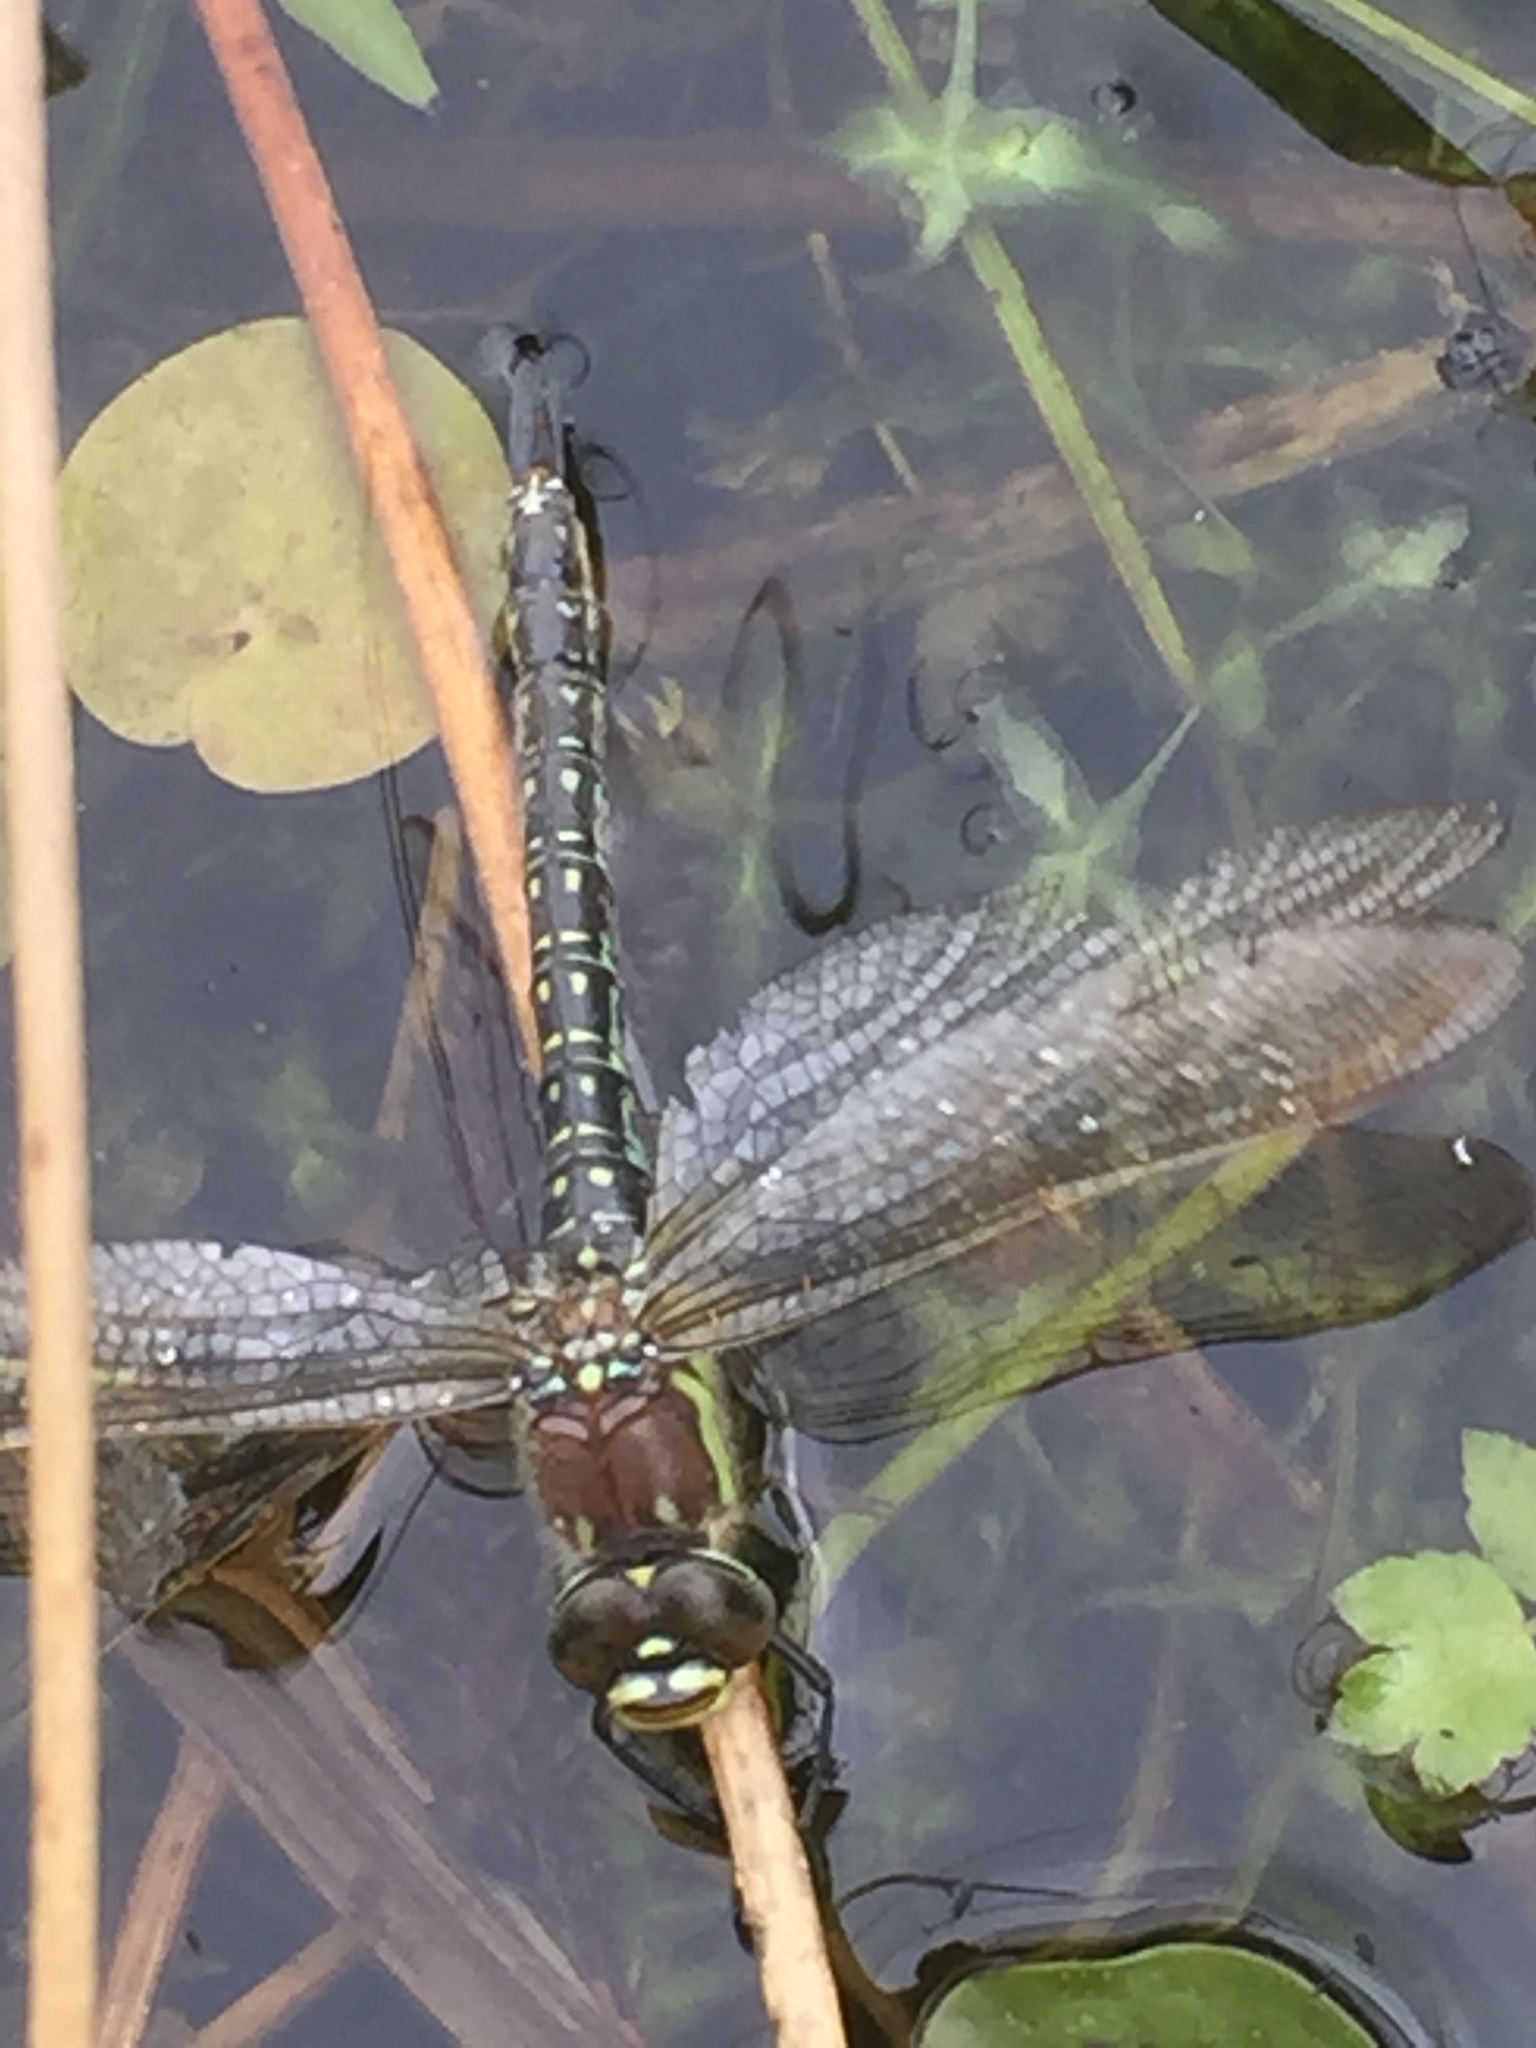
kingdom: Animalia
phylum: Arthropoda
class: Insecta
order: Odonata
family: Aeshnidae
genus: Brachytron
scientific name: Brachytron pratense
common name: Hairy hawker
